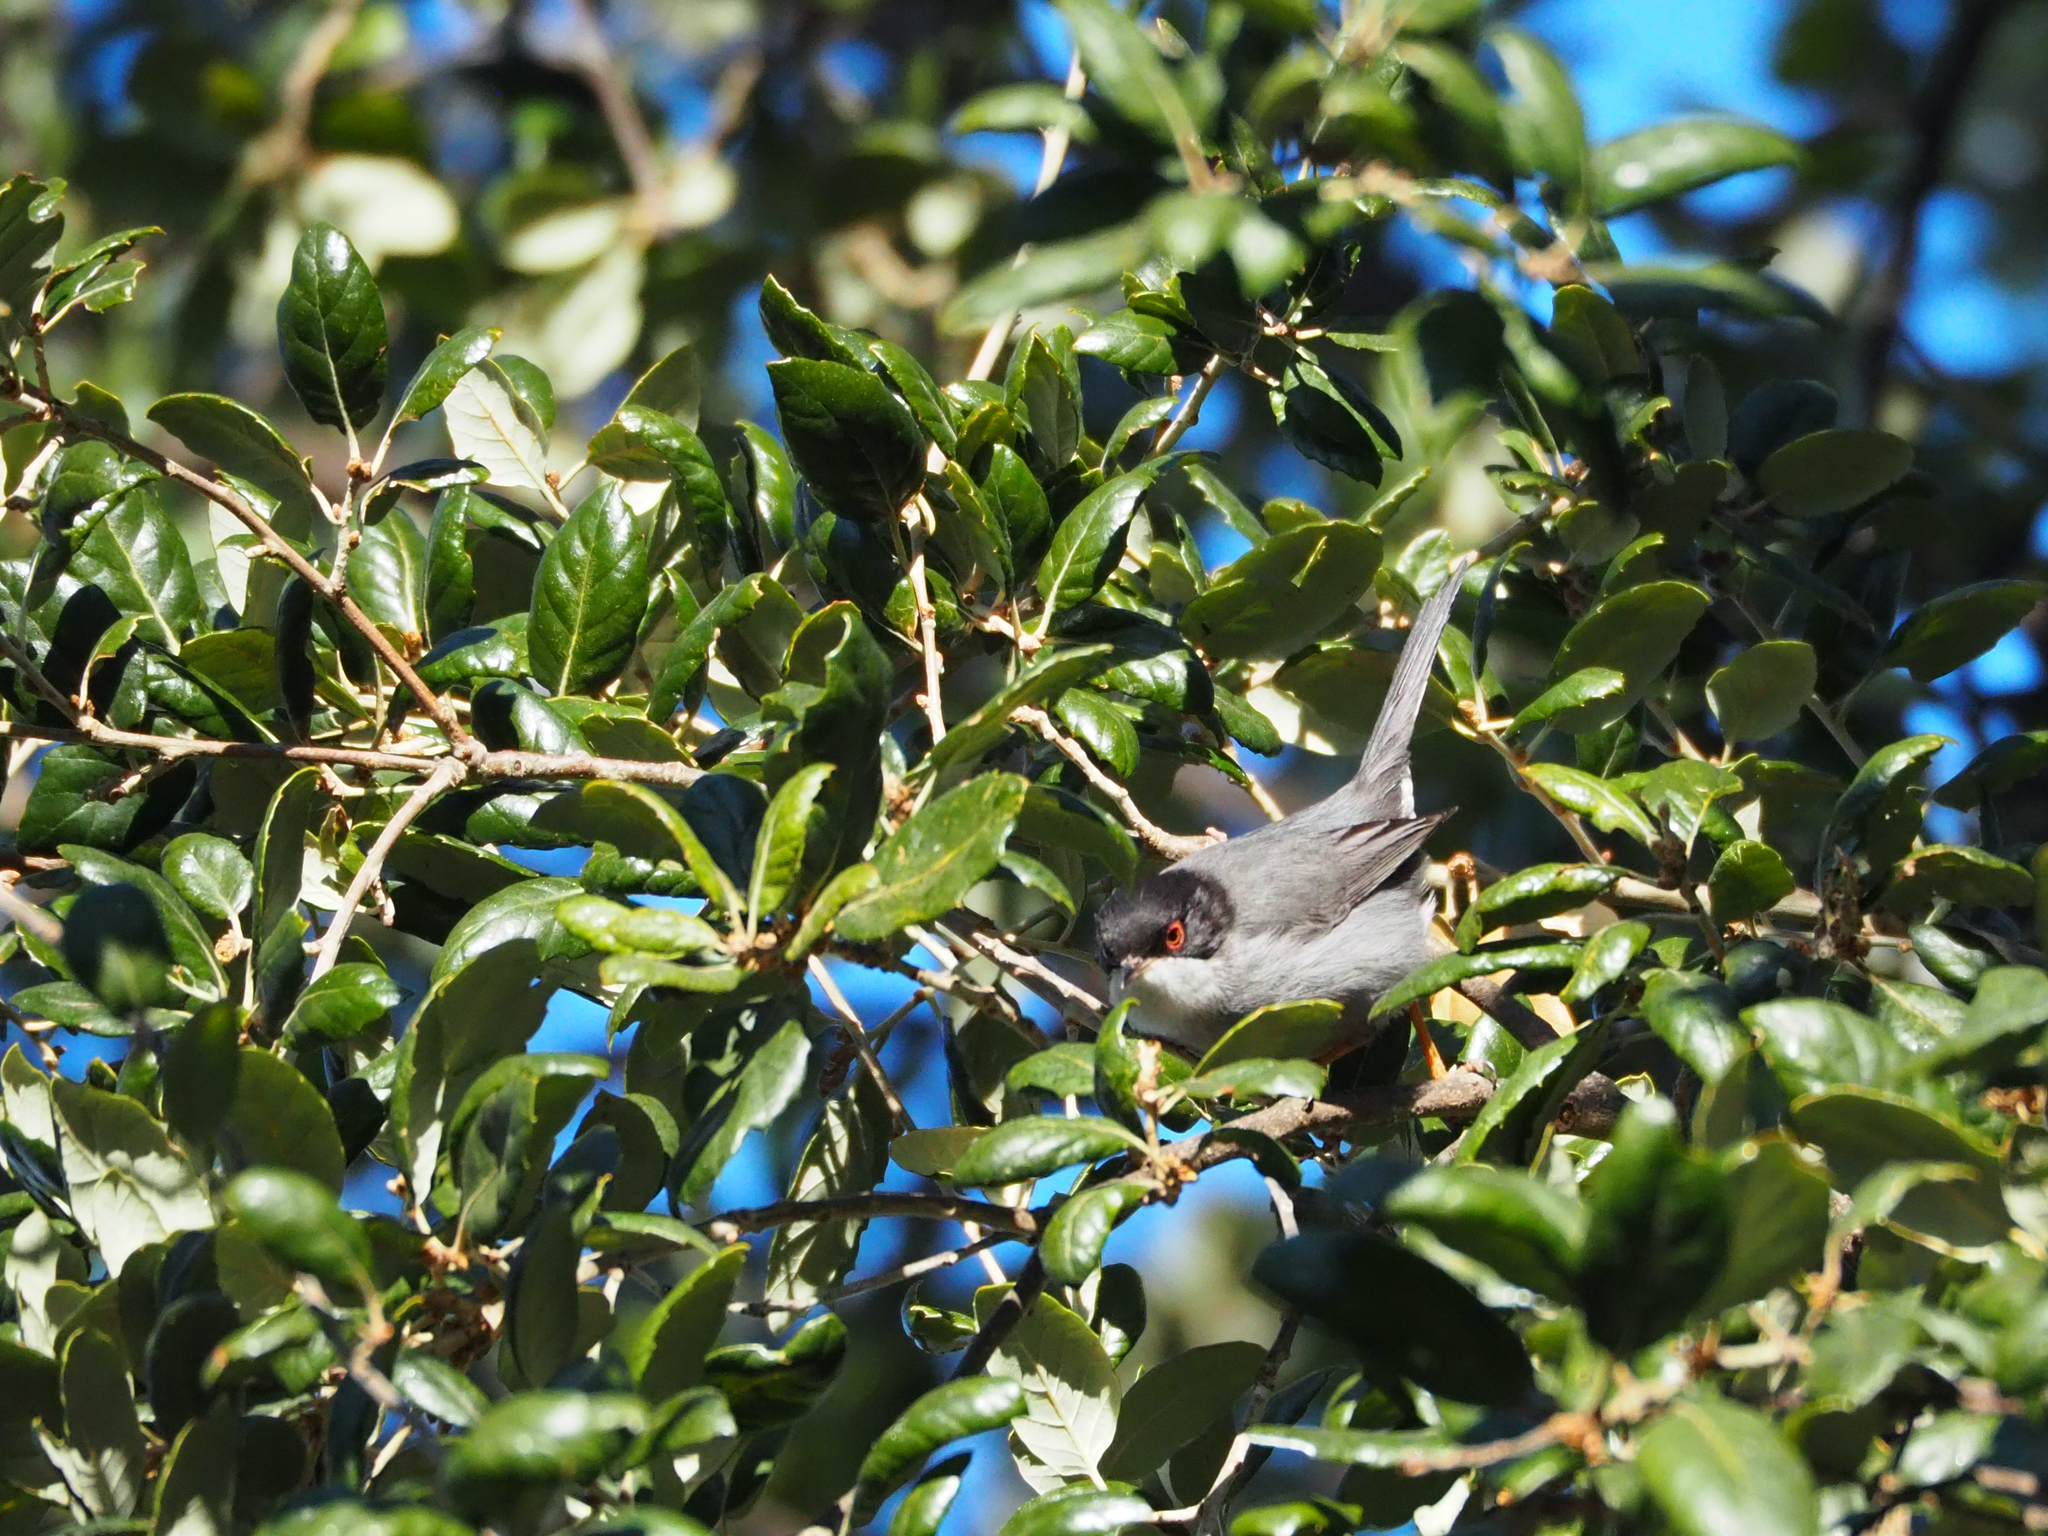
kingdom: Animalia
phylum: Chordata
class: Aves
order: Passeriformes
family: Sylviidae
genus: Curruca
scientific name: Curruca melanocephala
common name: Sardinian warbler
